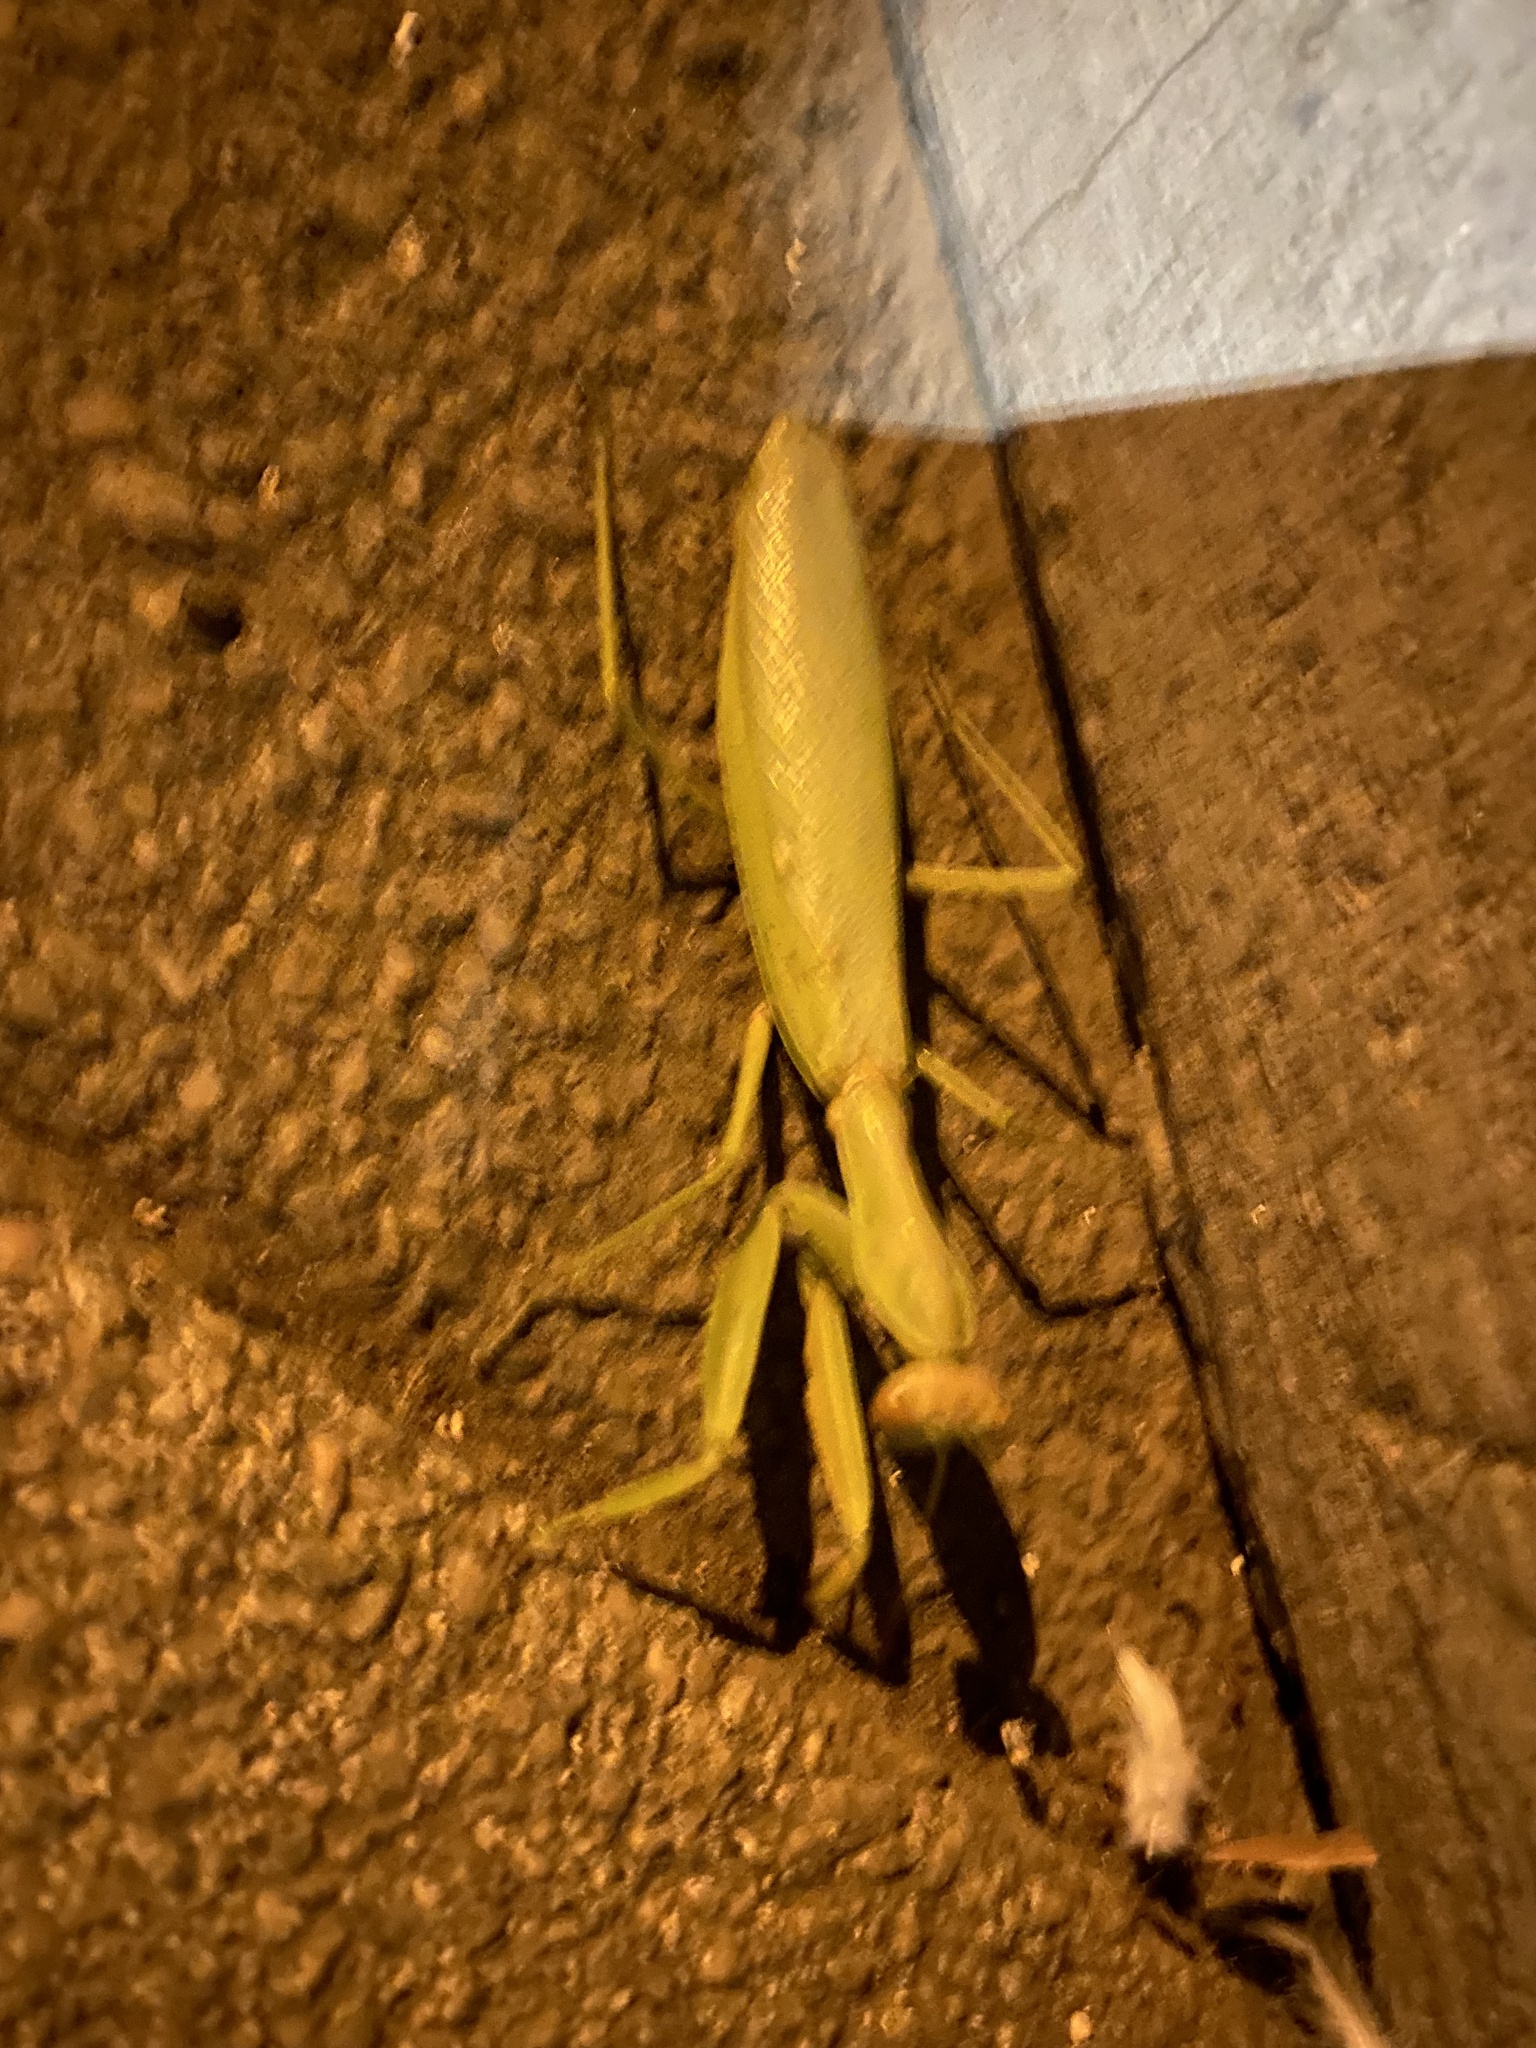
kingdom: Animalia
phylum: Arthropoda
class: Insecta
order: Mantodea
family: Mantidae
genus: Hierodula
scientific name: Hierodula transcaucasica
